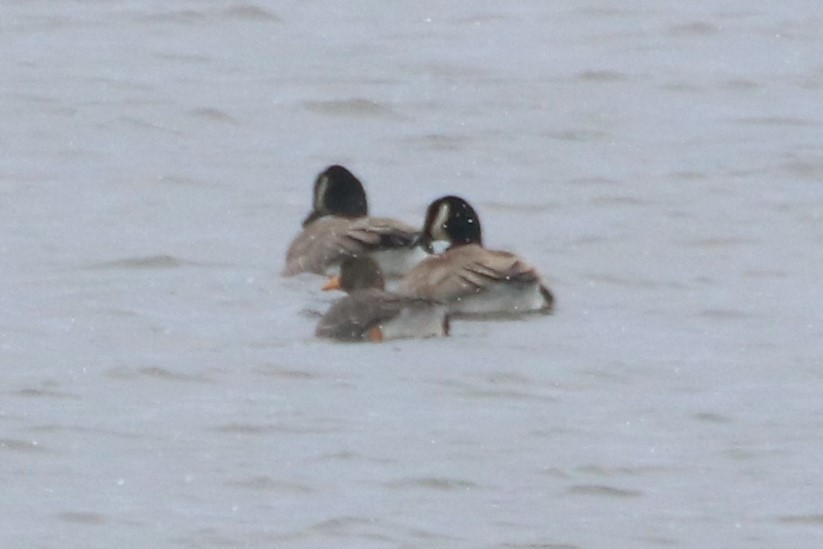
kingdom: Animalia
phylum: Chordata
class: Aves
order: Anseriformes
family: Anatidae
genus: Anser
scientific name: Anser albifrons
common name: Greater white-fronted goose
